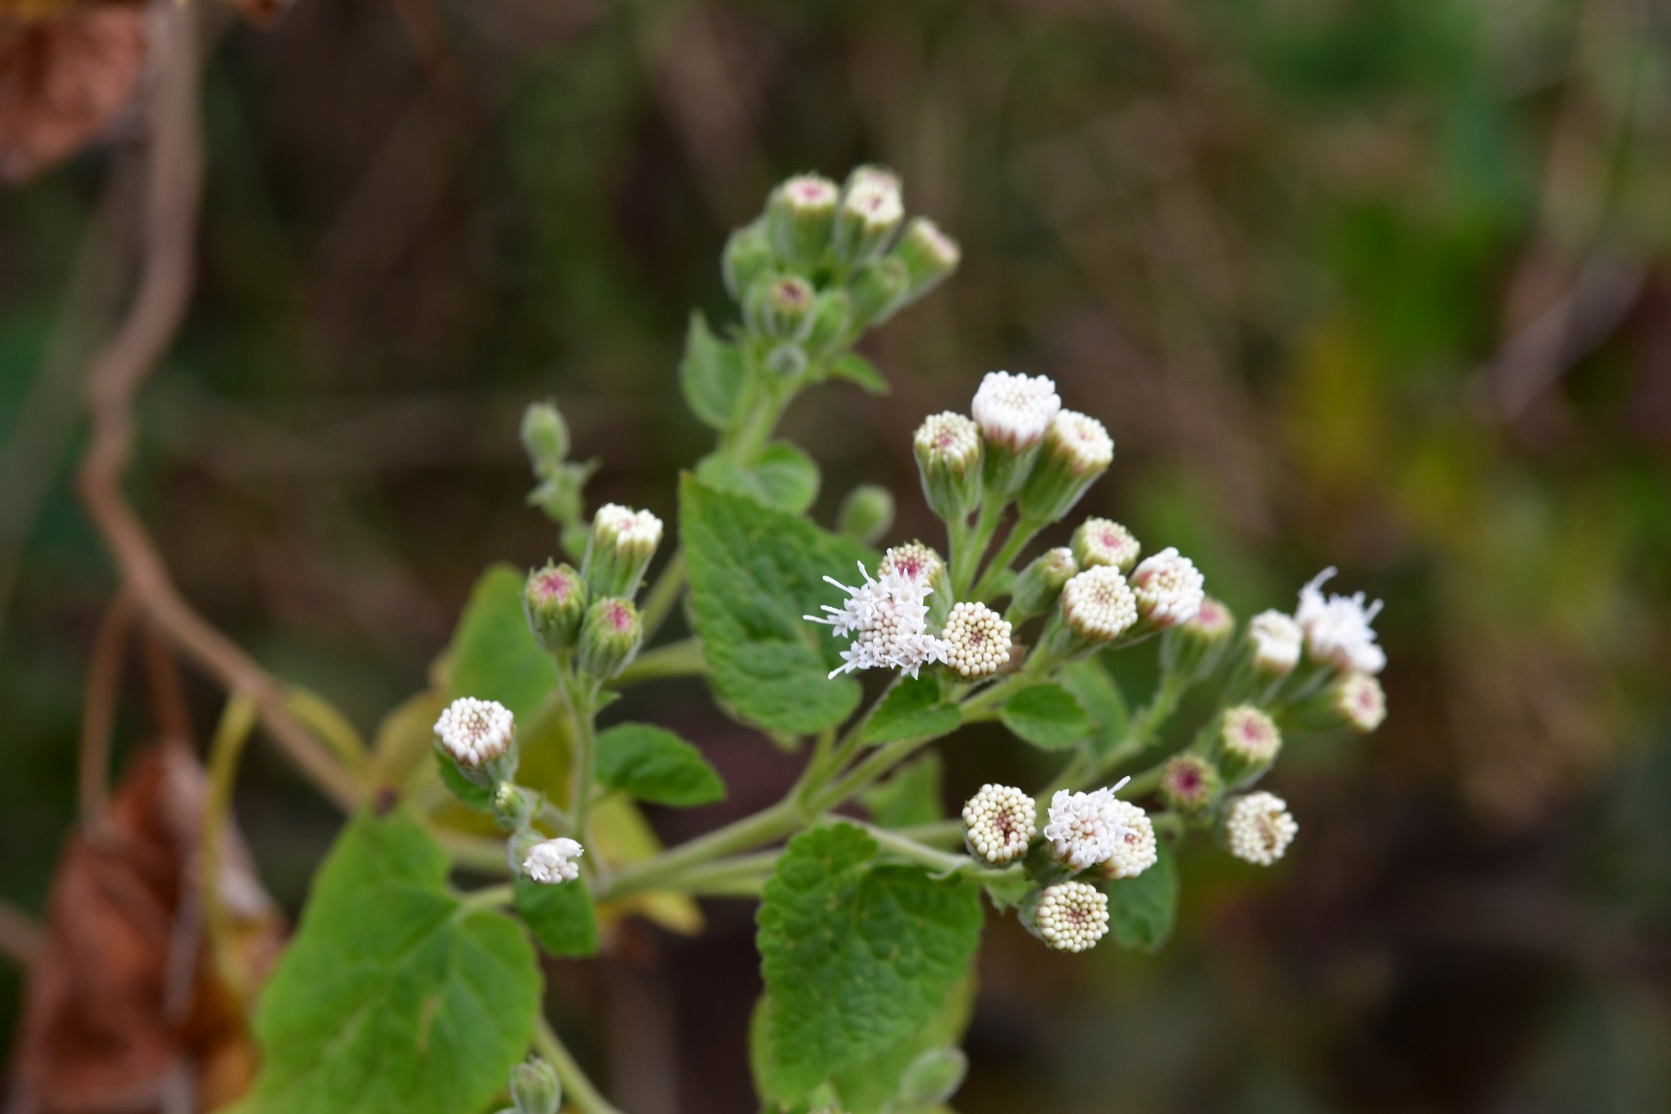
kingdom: Plantae
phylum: Tracheophyta
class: Magnoliopsida
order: Asterales
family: Asteraceae
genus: Ageratina
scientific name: Ageratina petiolaris
